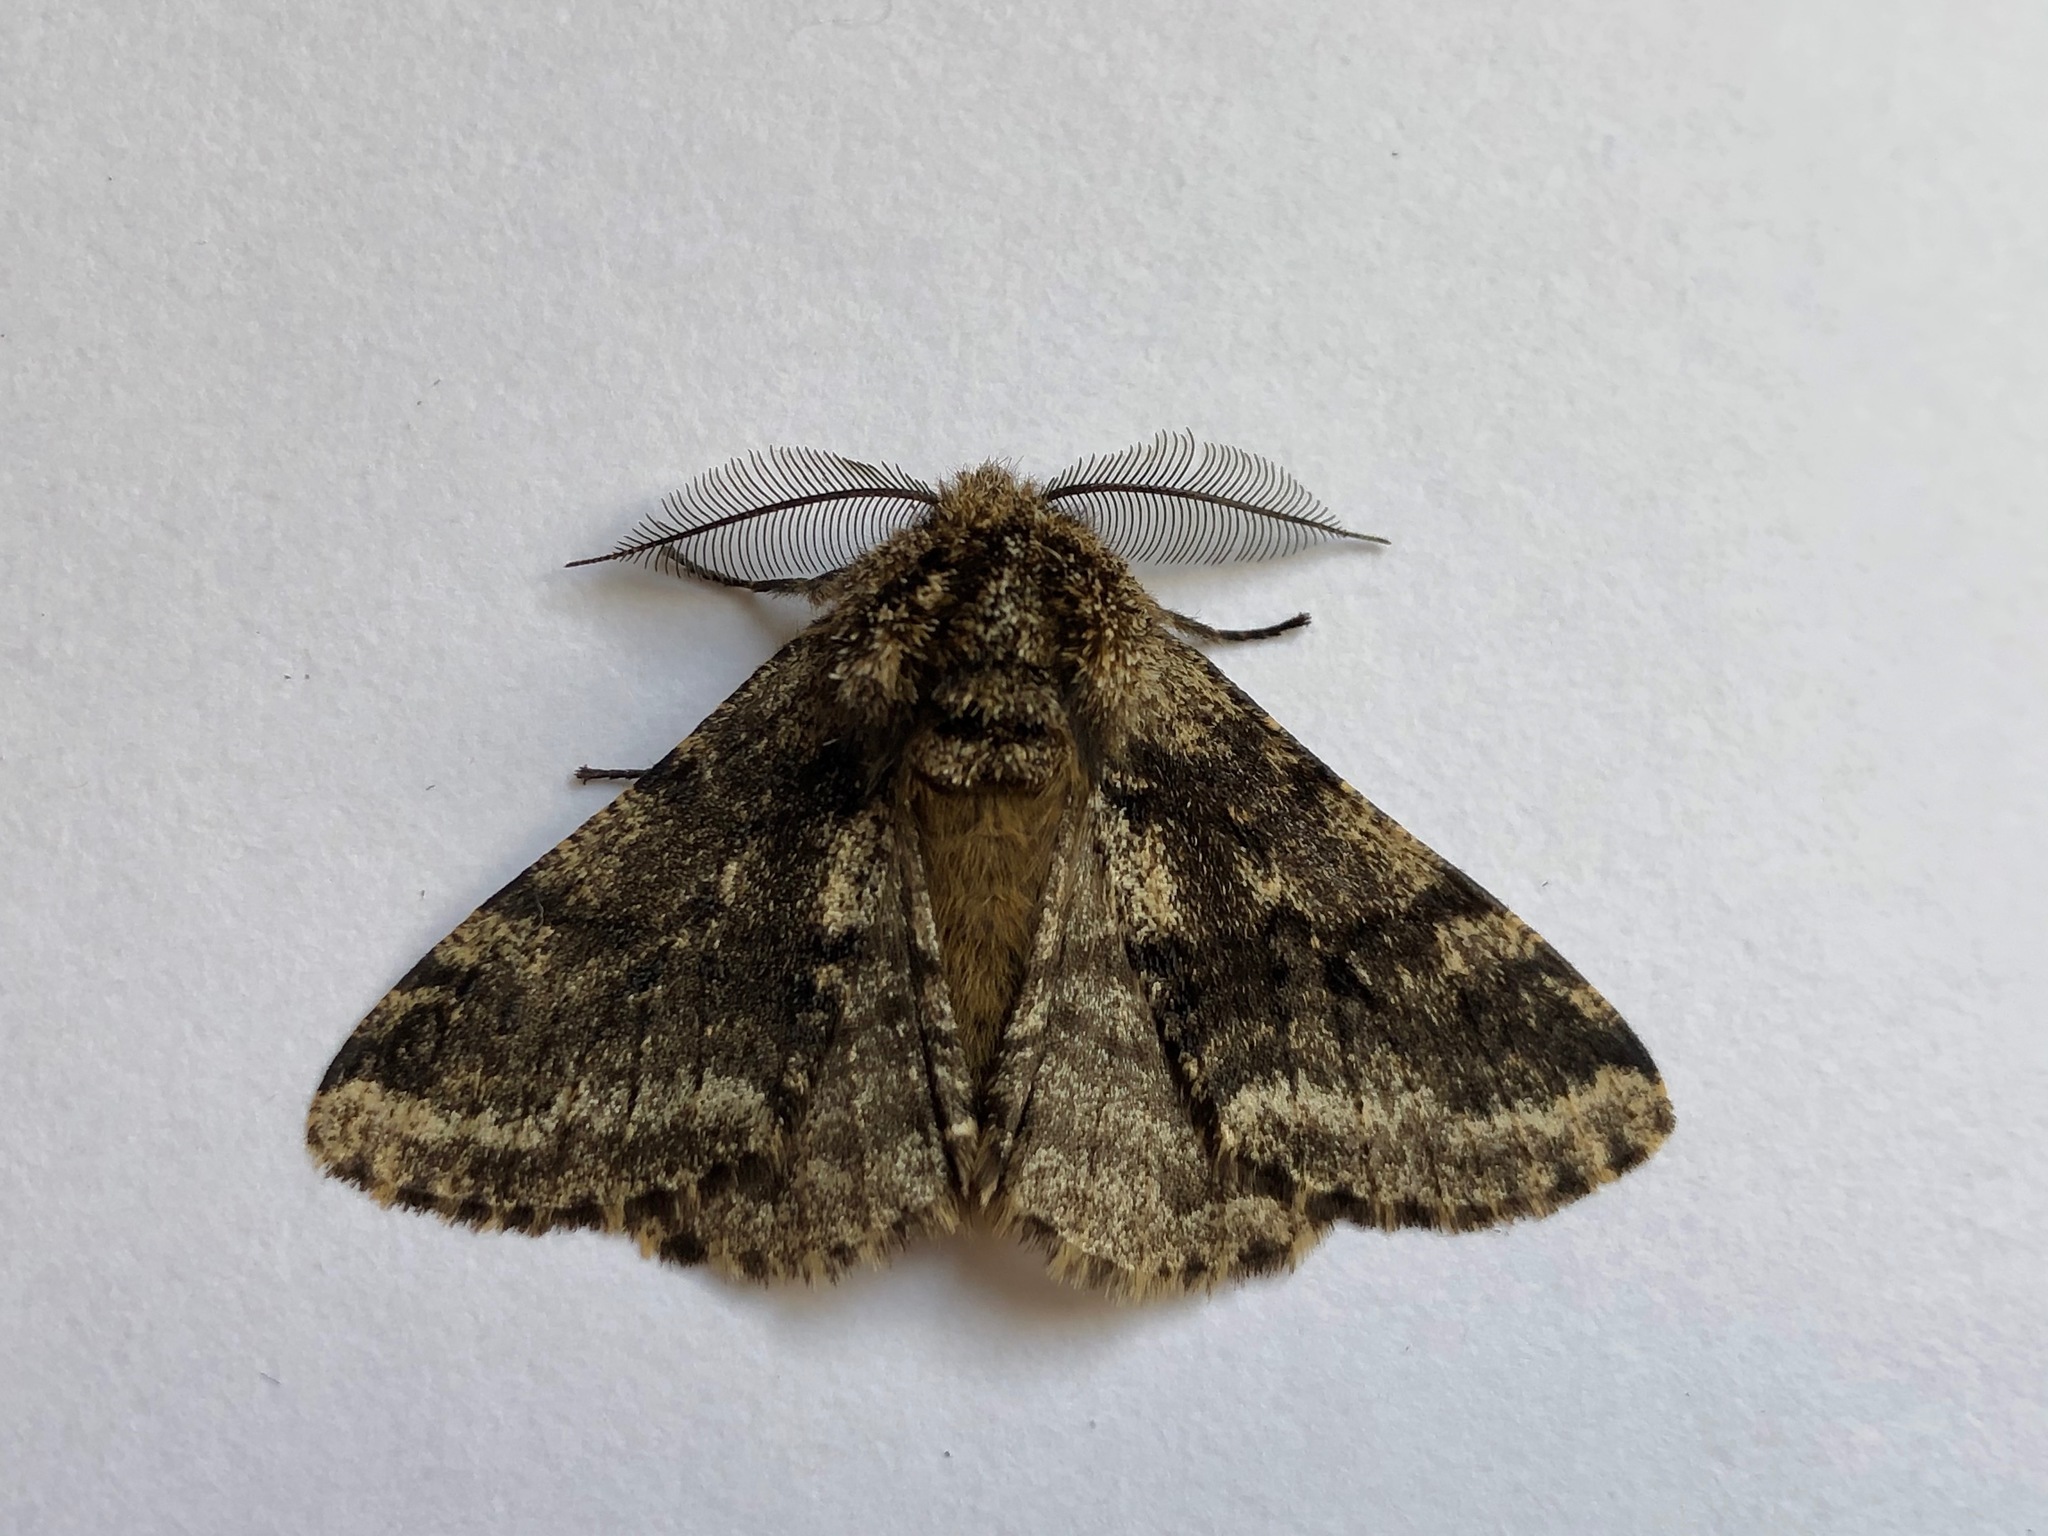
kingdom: Animalia
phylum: Arthropoda
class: Insecta
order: Lepidoptera
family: Geometridae
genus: Lycia
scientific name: Lycia hirtaria
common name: Brindled beauty
